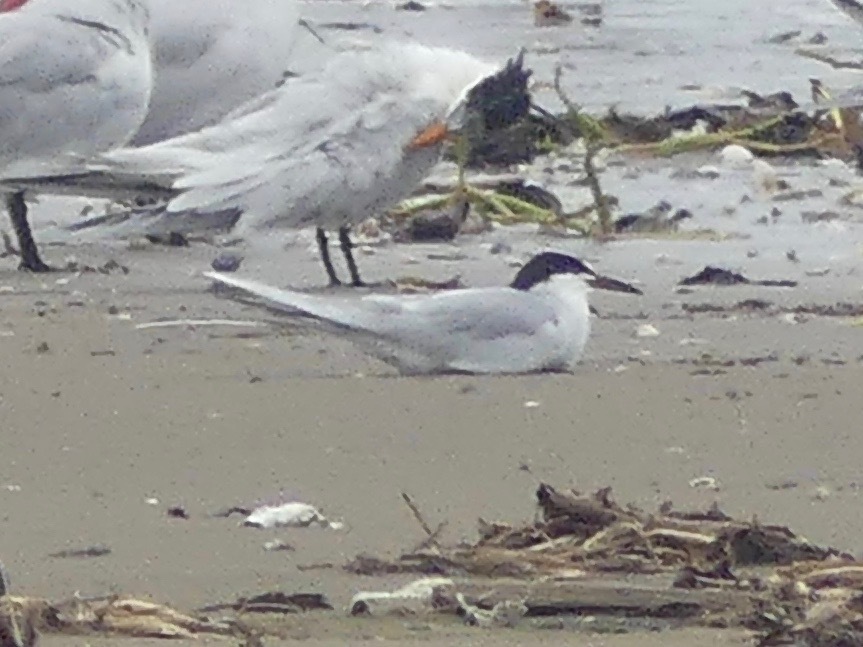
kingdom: Animalia
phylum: Chordata
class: Aves
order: Charadriiformes
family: Laridae
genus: Sterna
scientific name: Sterna forsteri
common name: Forster's tern
